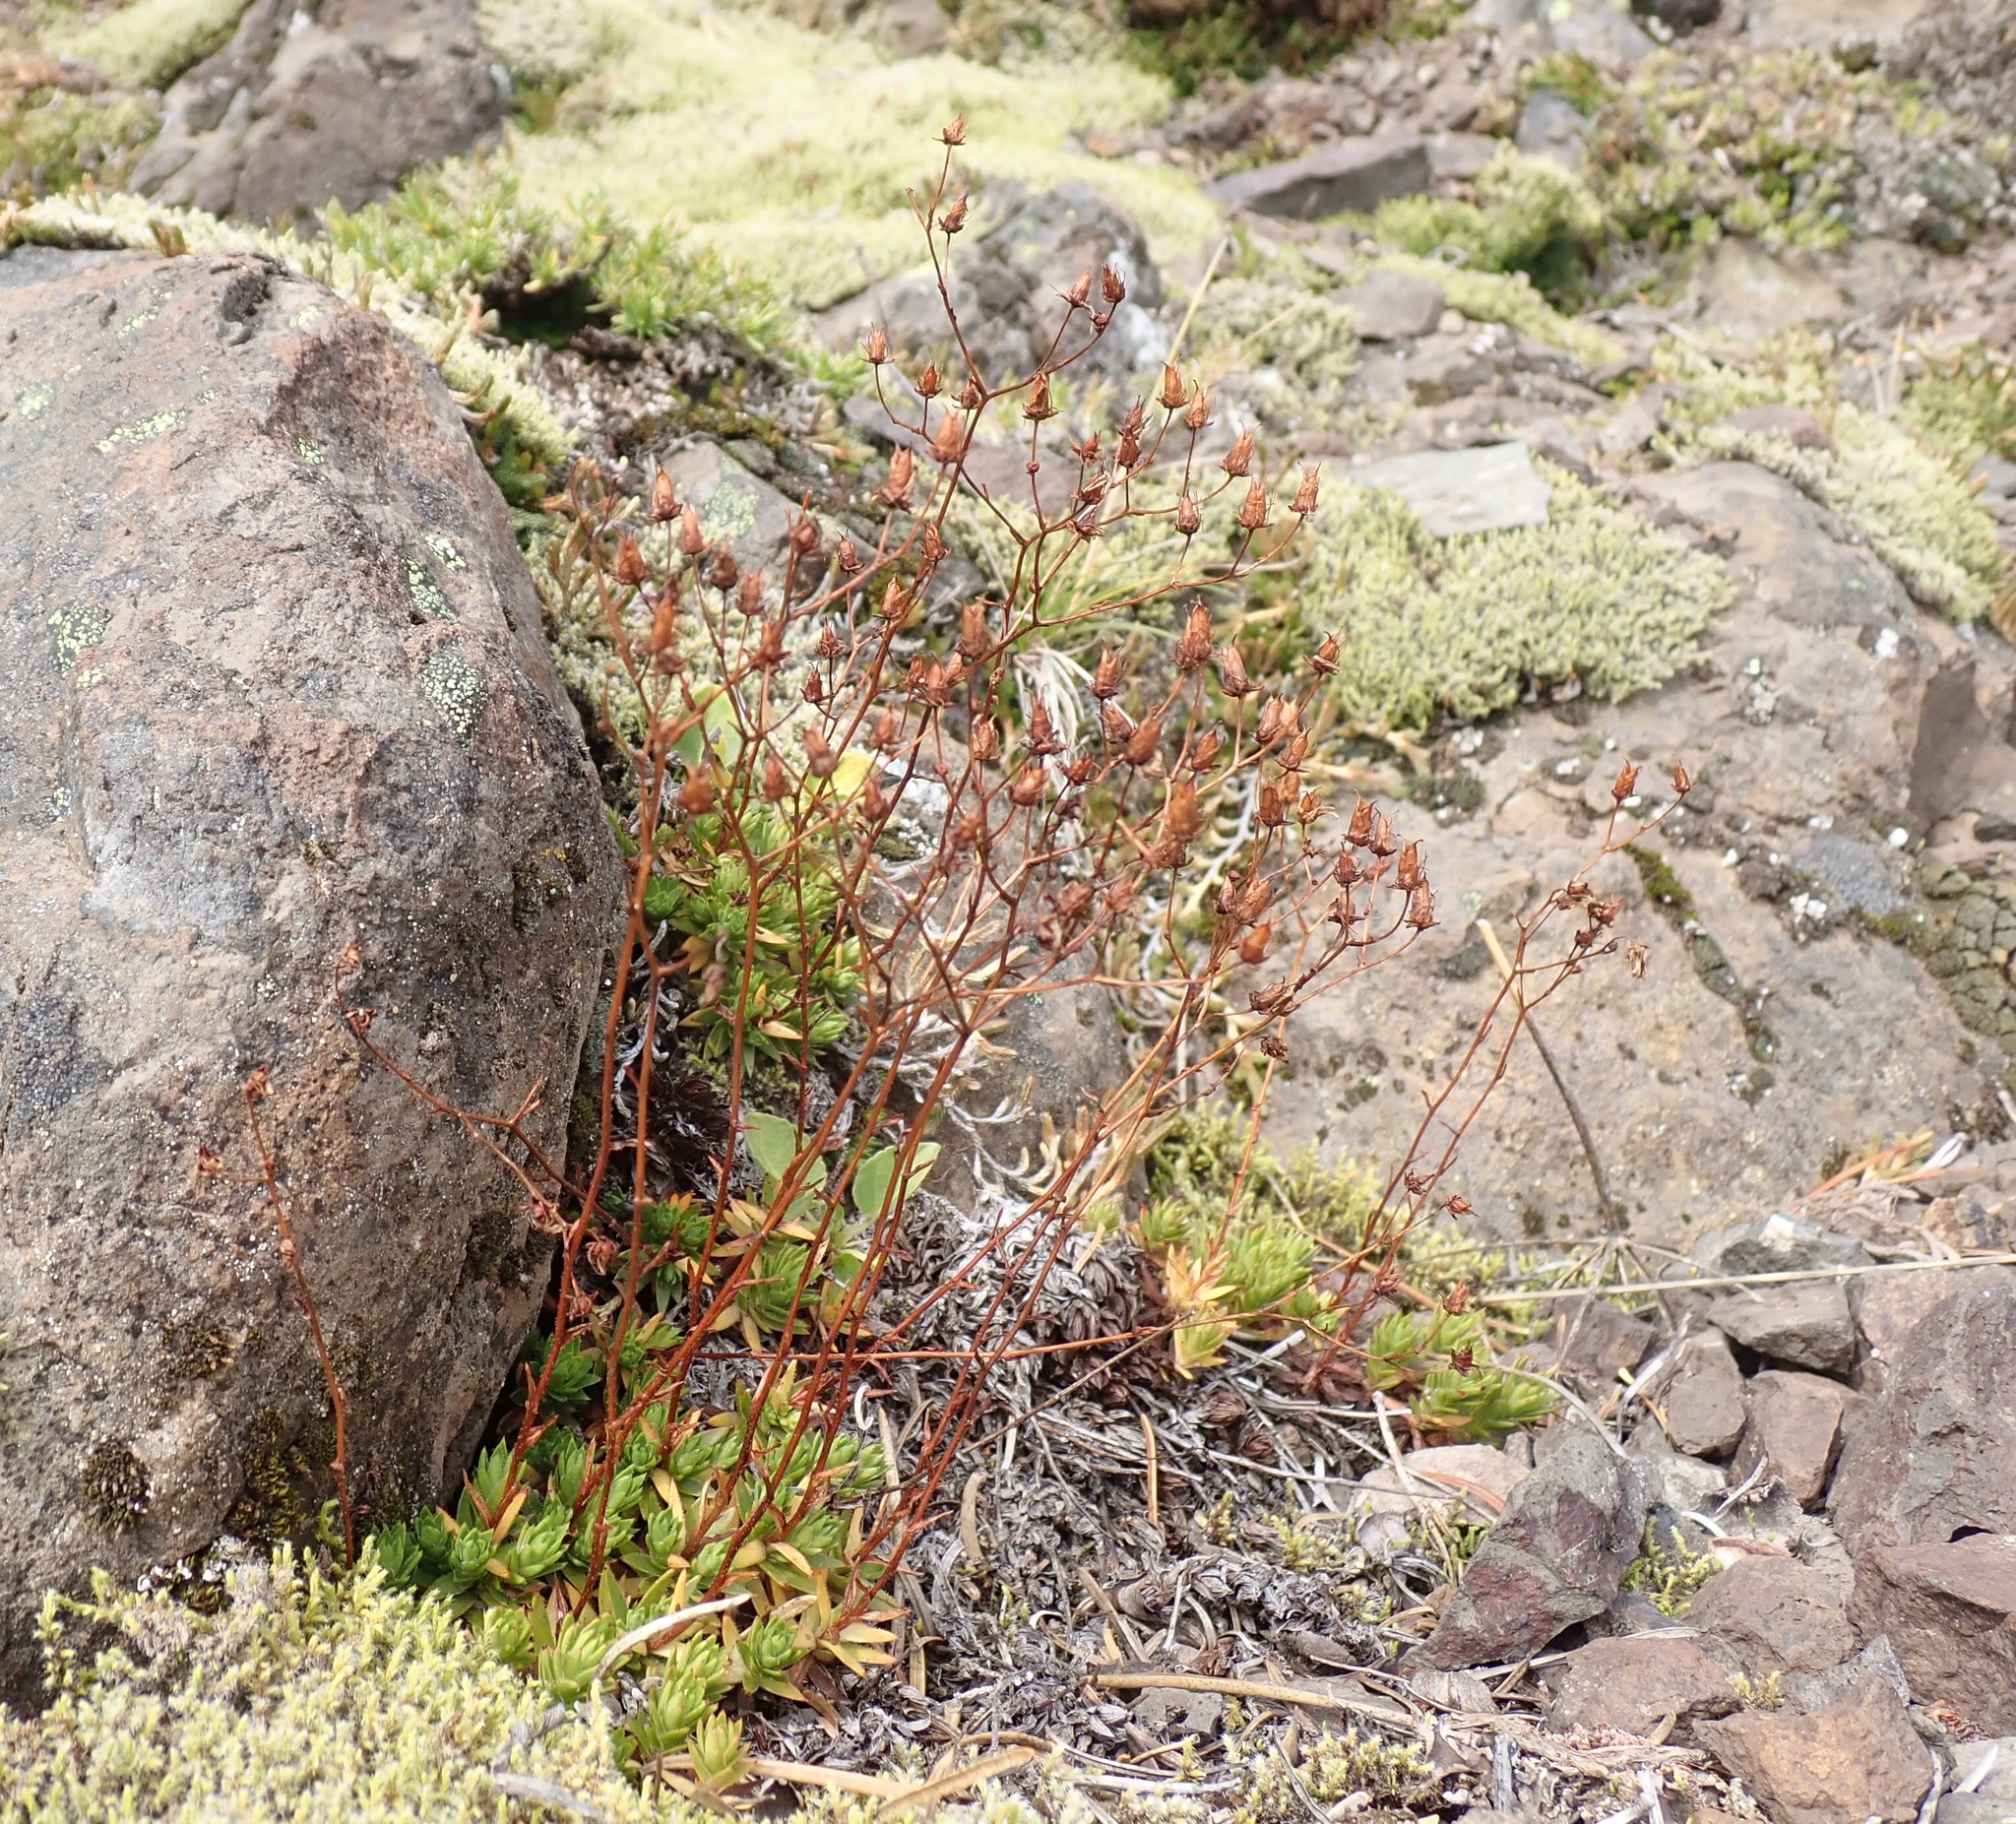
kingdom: Plantae
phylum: Tracheophyta
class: Magnoliopsida
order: Saxifragales
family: Saxifragaceae
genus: Saxifraga
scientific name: Saxifraga bronchialis
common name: Matted saxifrage
